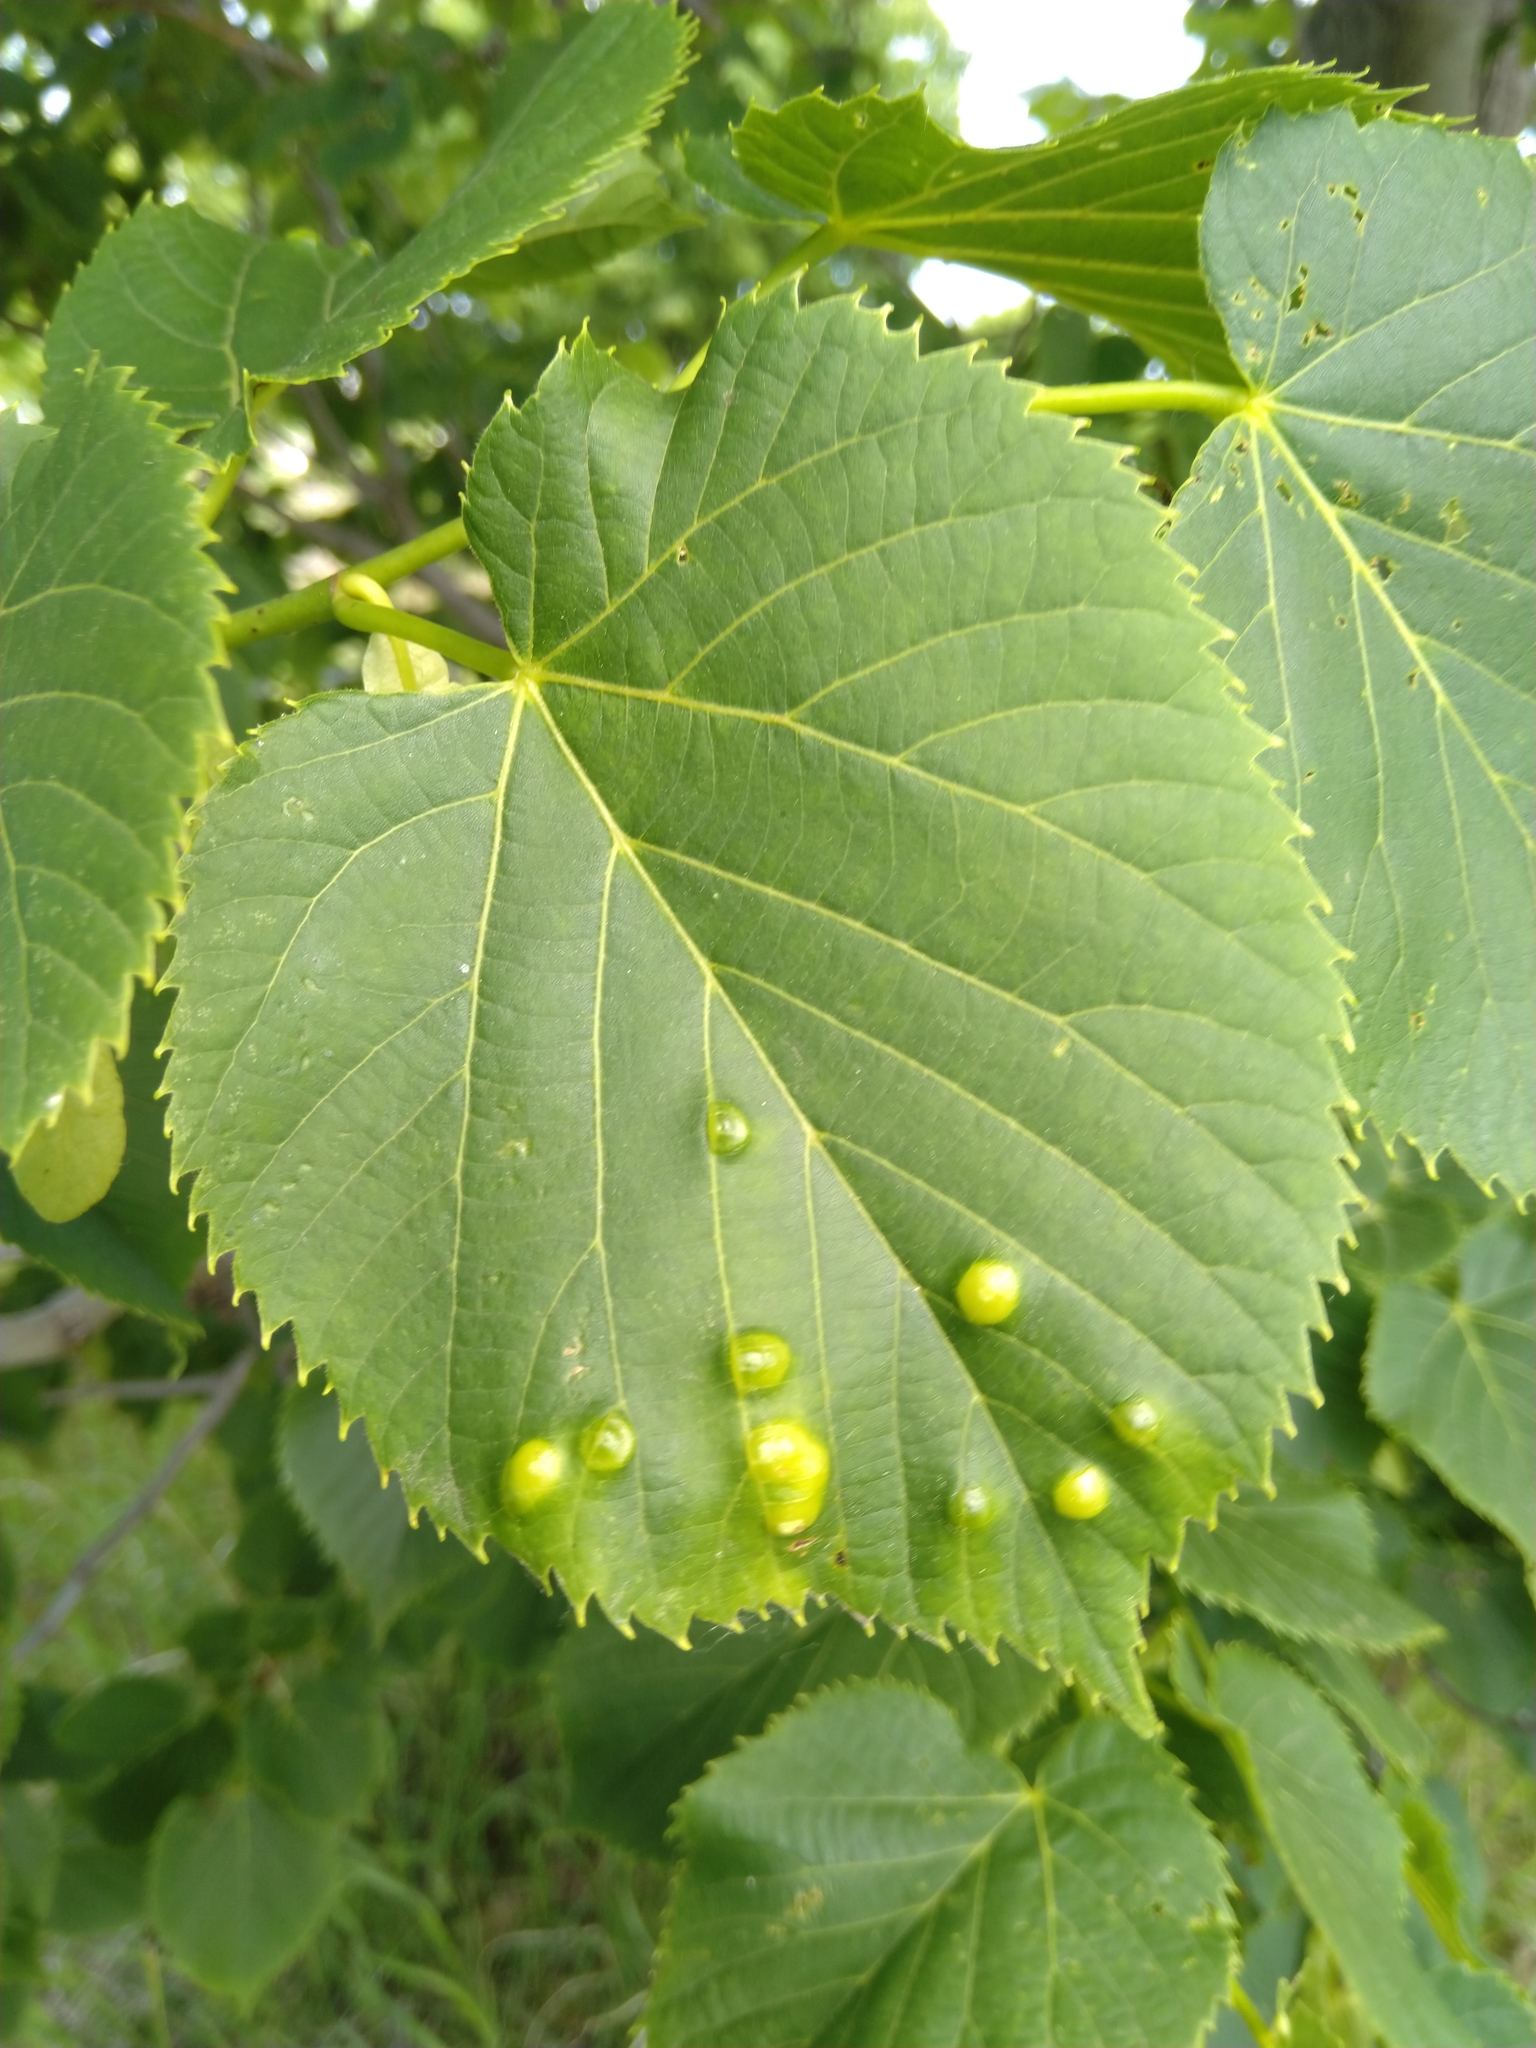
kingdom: Animalia
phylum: Arthropoda
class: Insecta
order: Diptera
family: Cecidomyiidae
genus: Contarinia
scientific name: Contarinia verrucicola
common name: Linden wart gall midge
